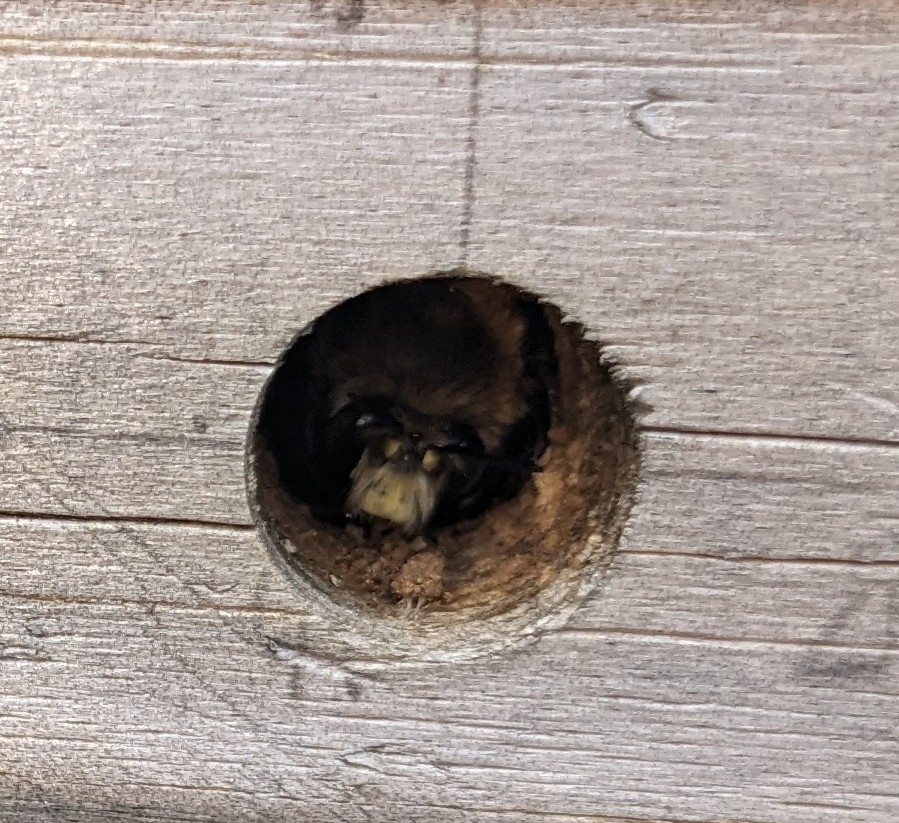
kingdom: Animalia
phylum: Arthropoda
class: Insecta
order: Hymenoptera
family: Apidae
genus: Anthophora
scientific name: Anthophora plumipes
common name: Hairy-footed flower bee
